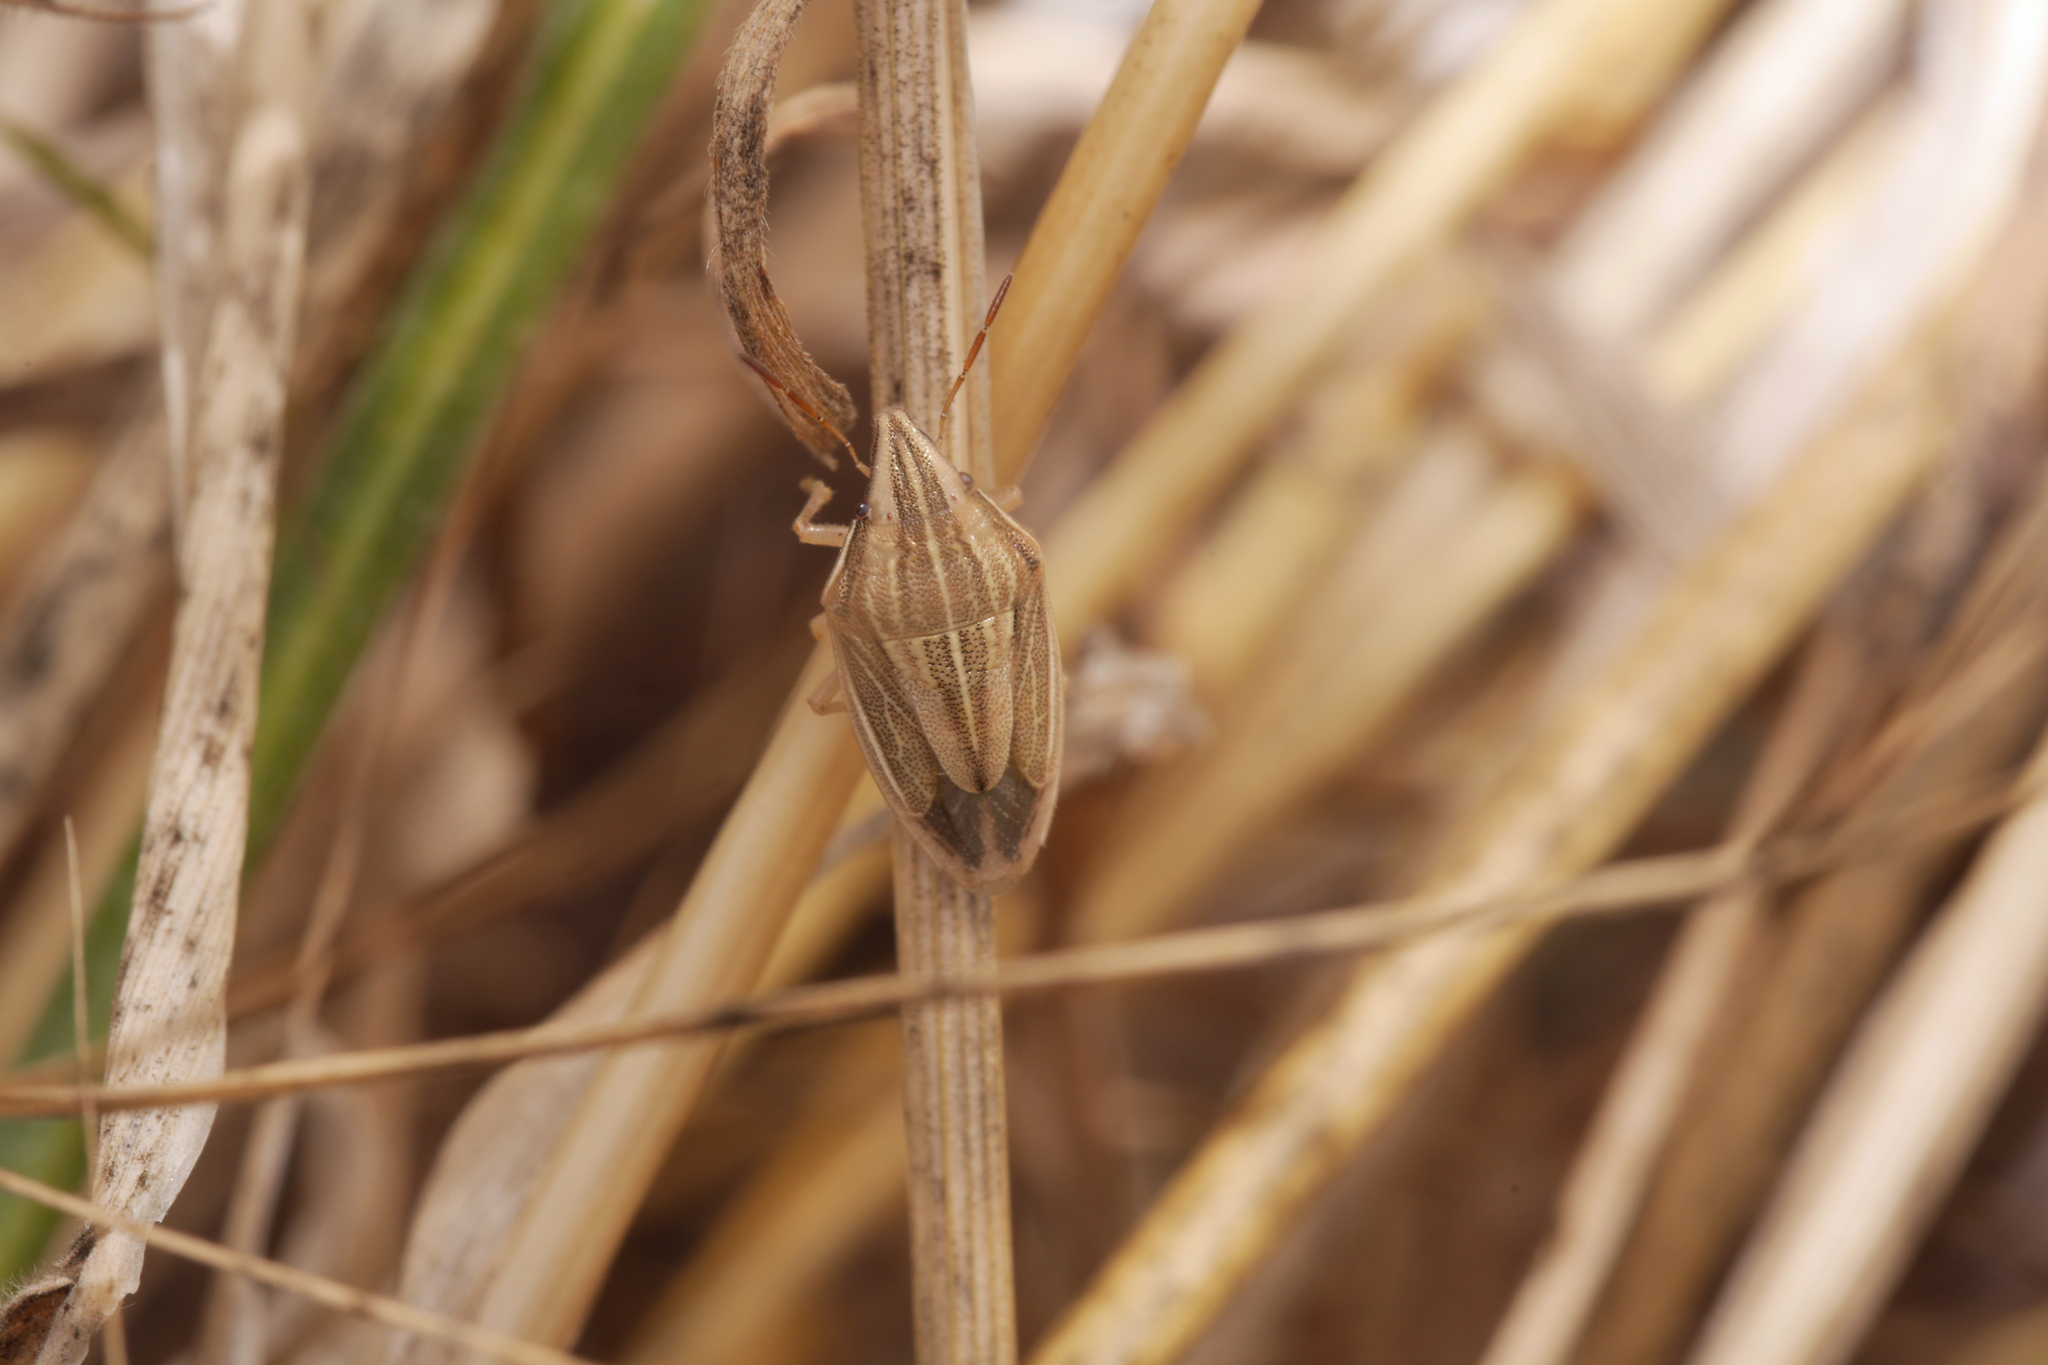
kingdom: Animalia
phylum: Arthropoda
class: Insecta
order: Hemiptera
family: Pentatomidae
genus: Aelia
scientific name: Aelia acuminata
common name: Bishop's mitre
